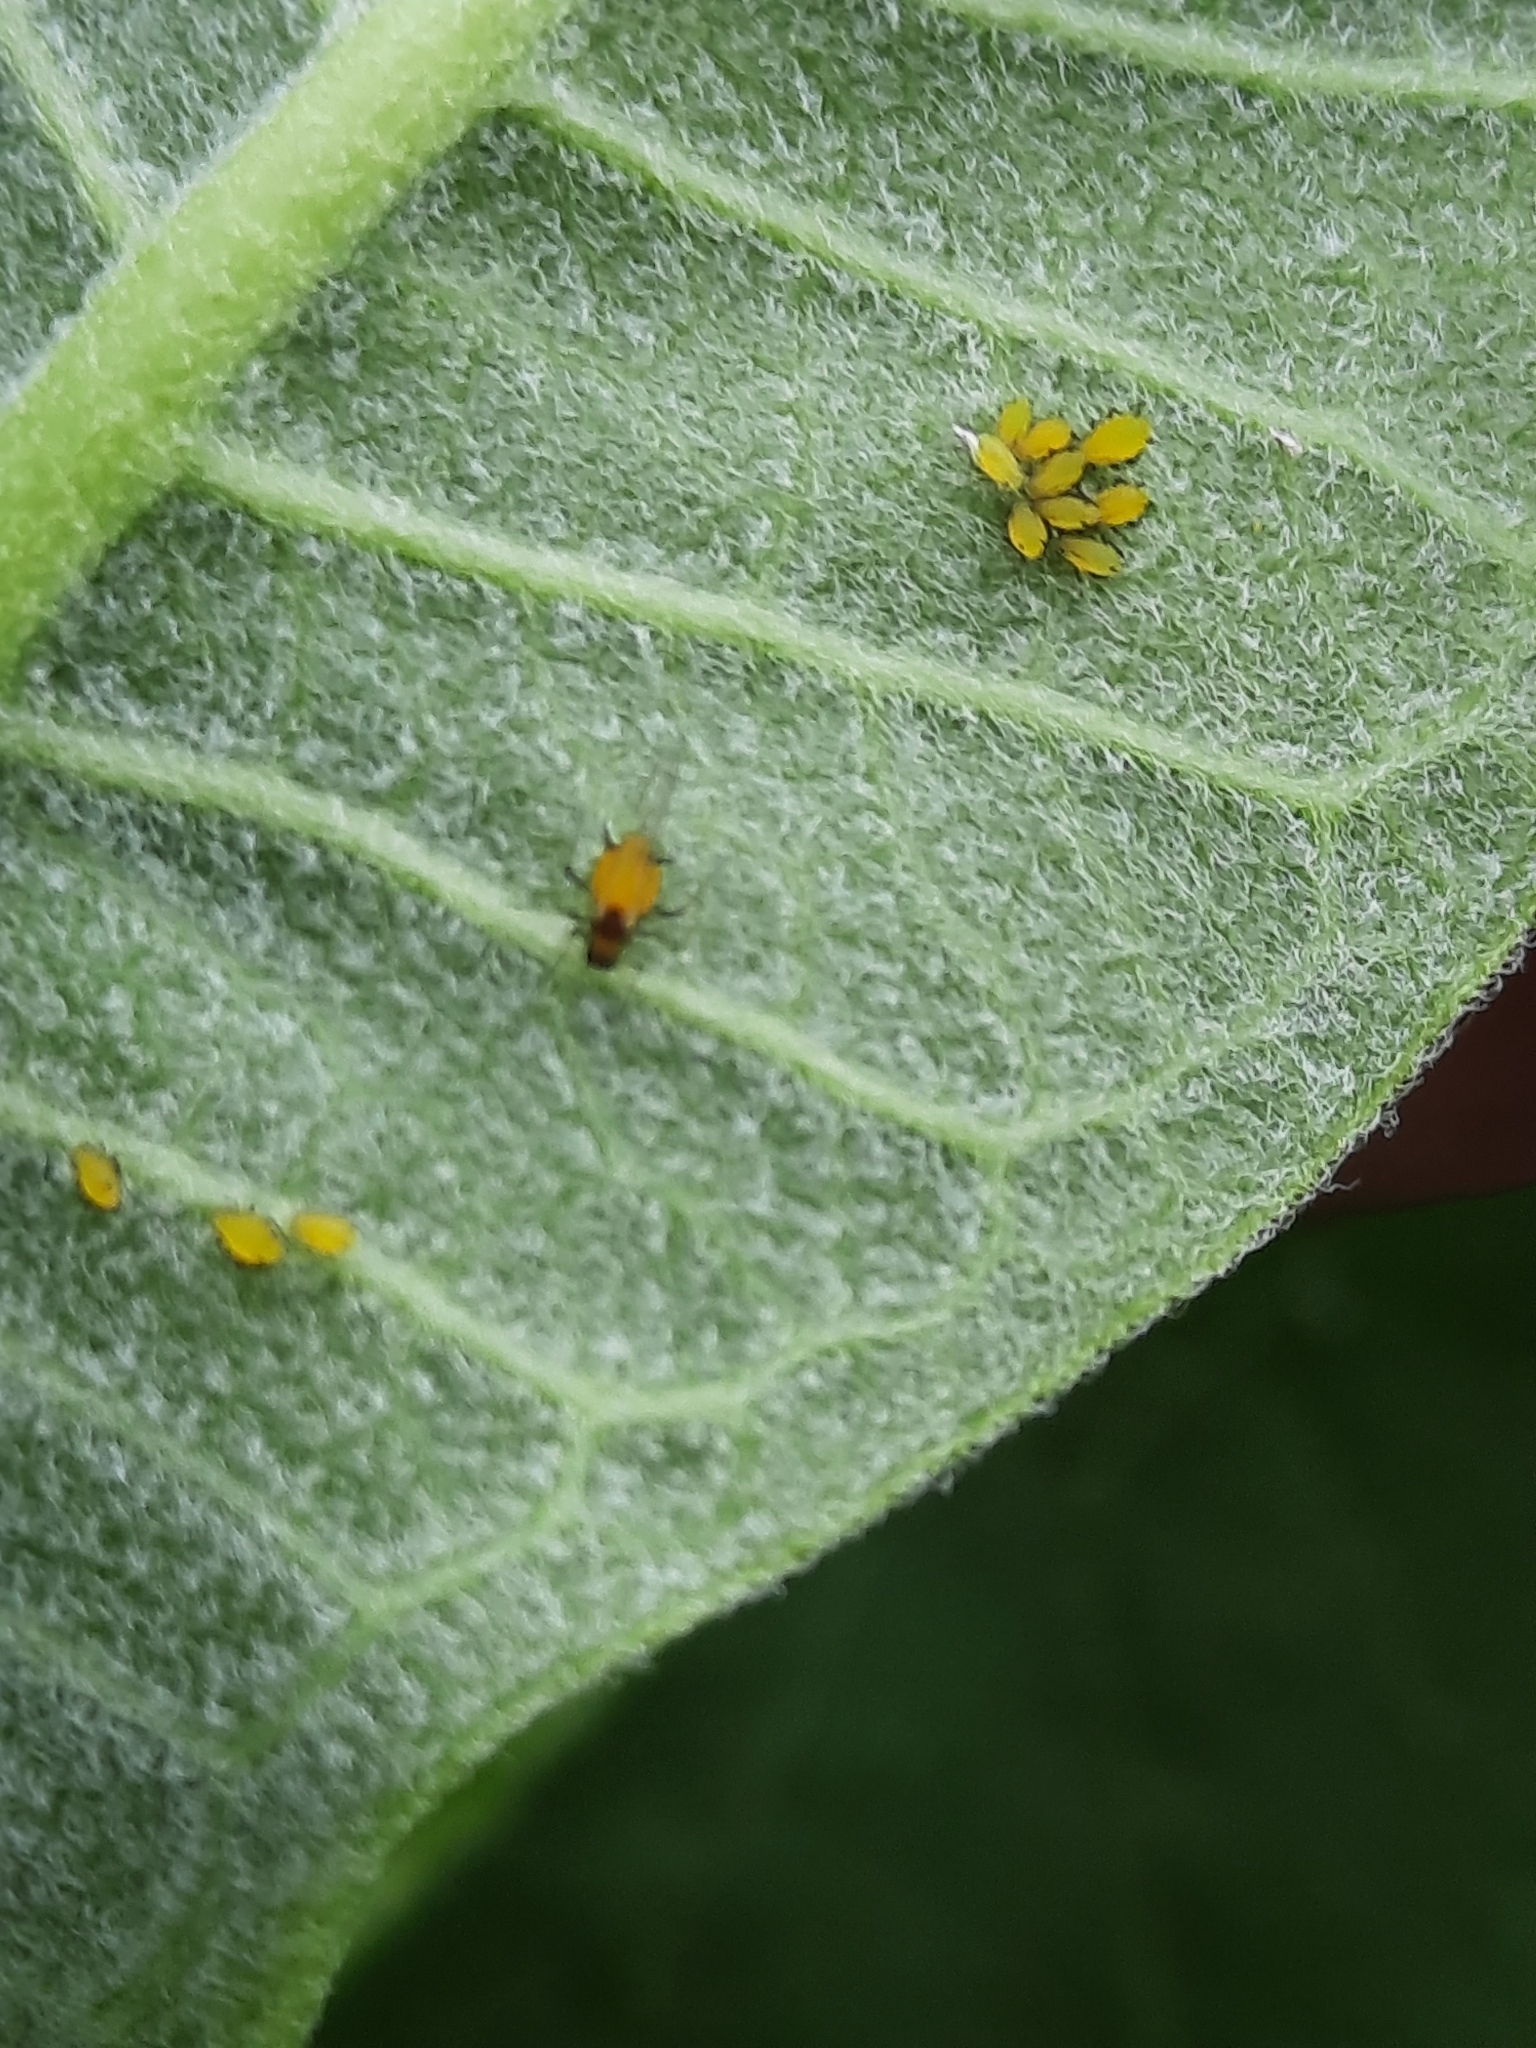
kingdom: Animalia
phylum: Arthropoda
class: Insecta
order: Hemiptera
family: Aphididae
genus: Aphis
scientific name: Aphis nerii
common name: Oleander aphid
